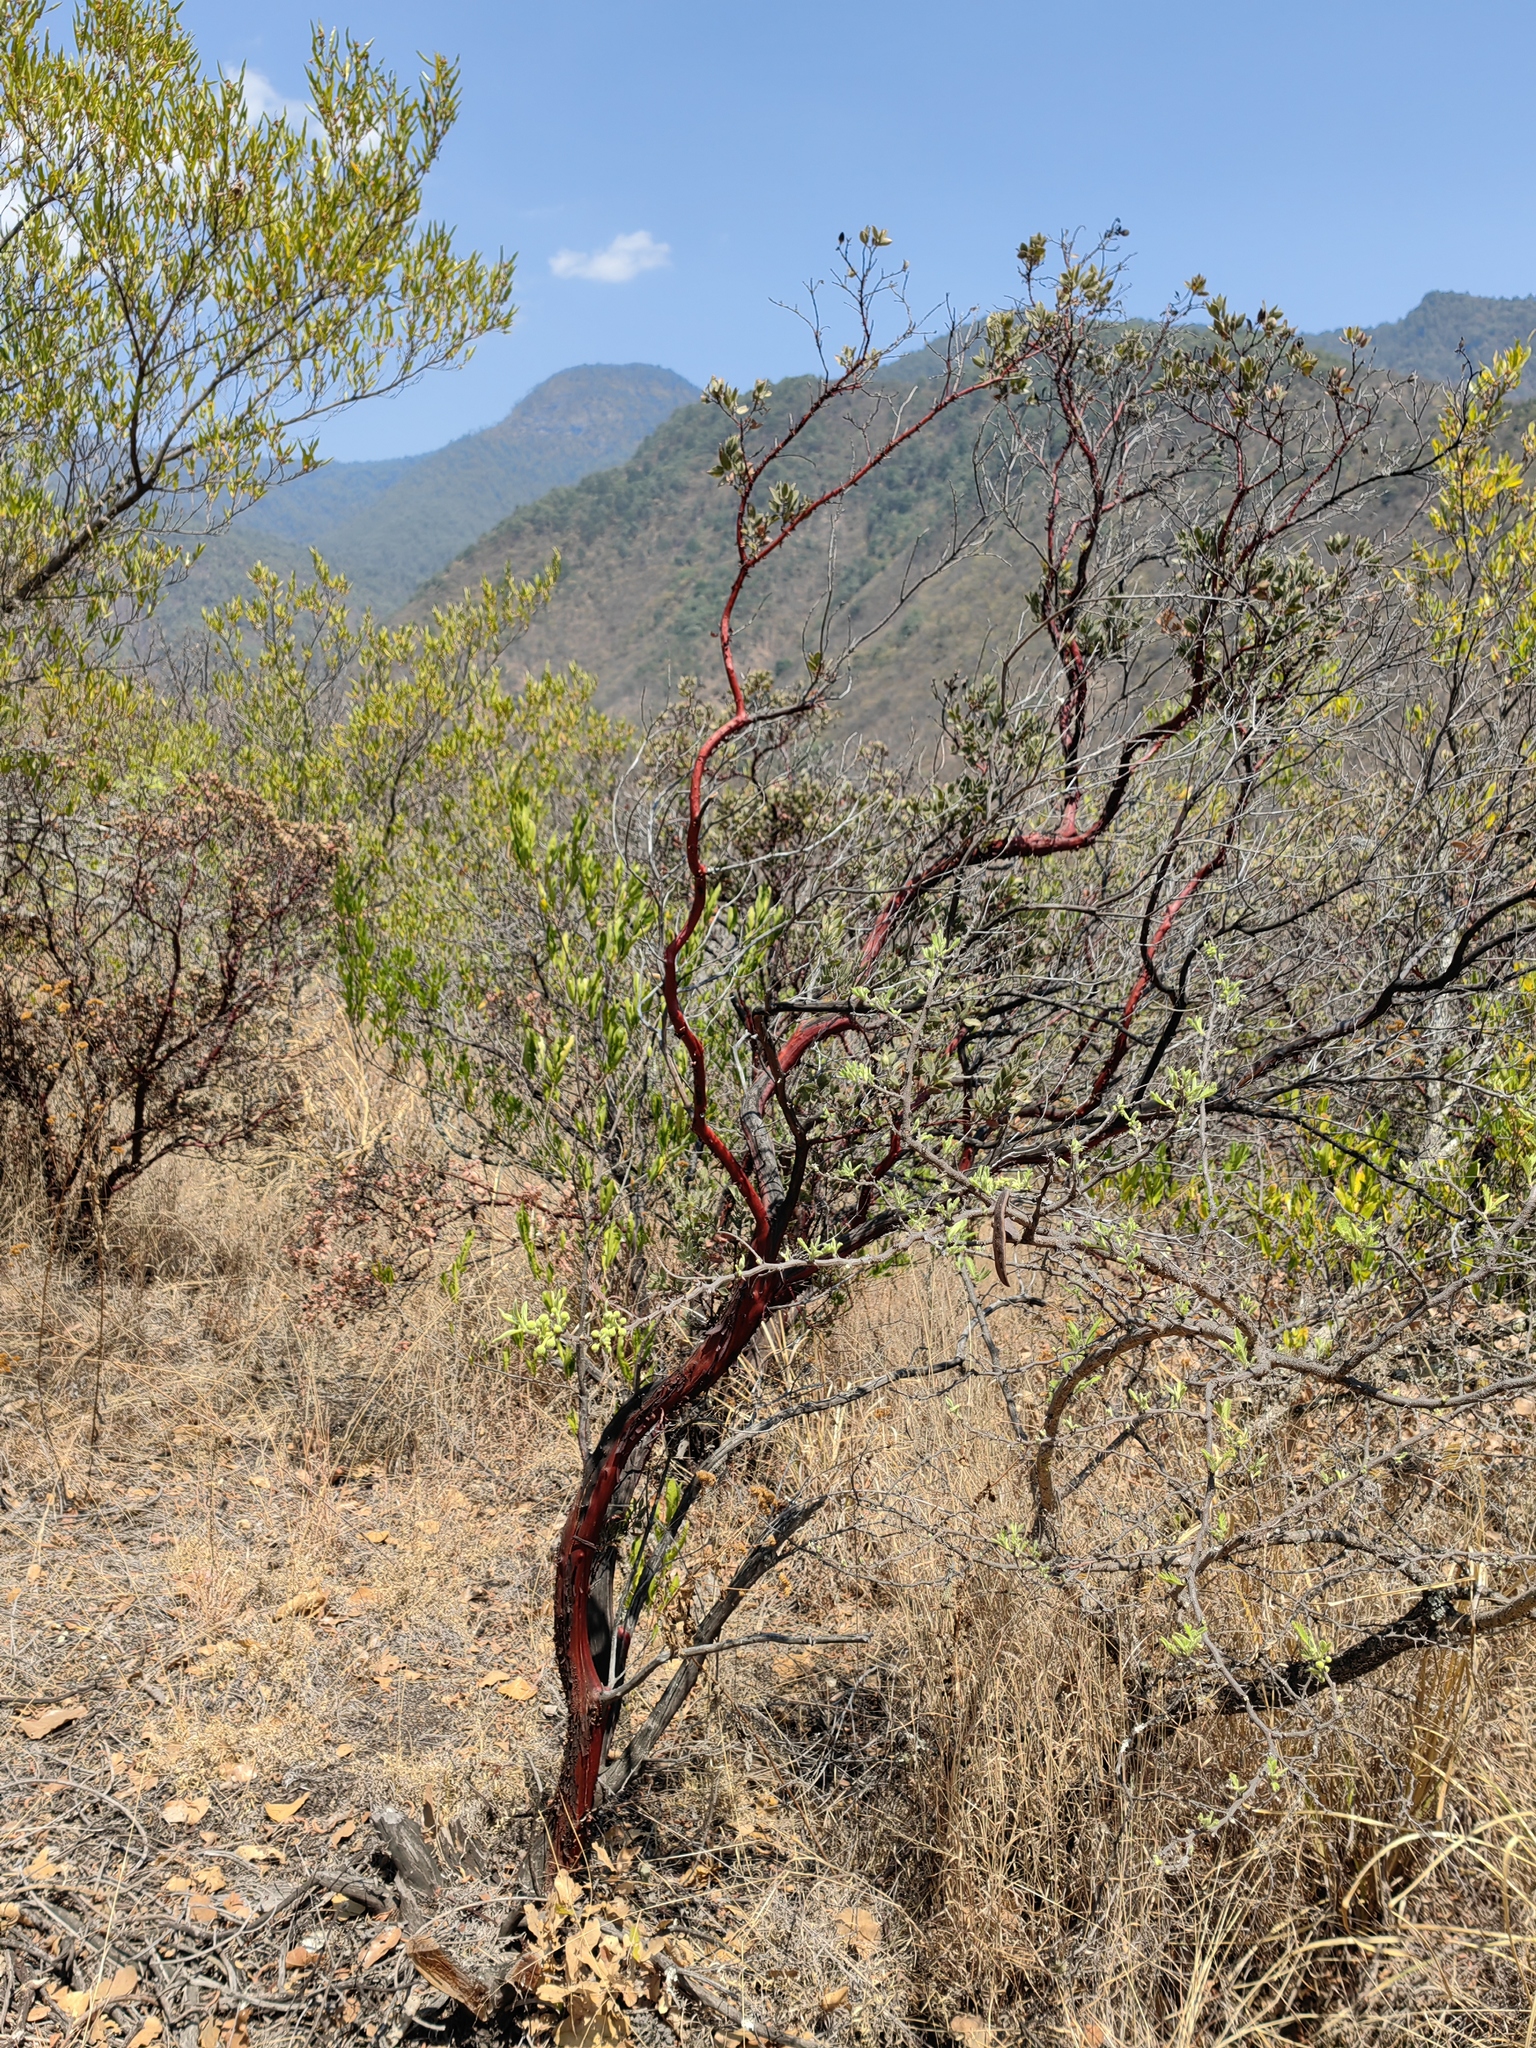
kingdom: Plantae
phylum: Tracheophyta
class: Magnoliopsida
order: Ericales
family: Ericaceae
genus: Arctostaphylos
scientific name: Arctostaphylos pungens
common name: Mexican manzanita
